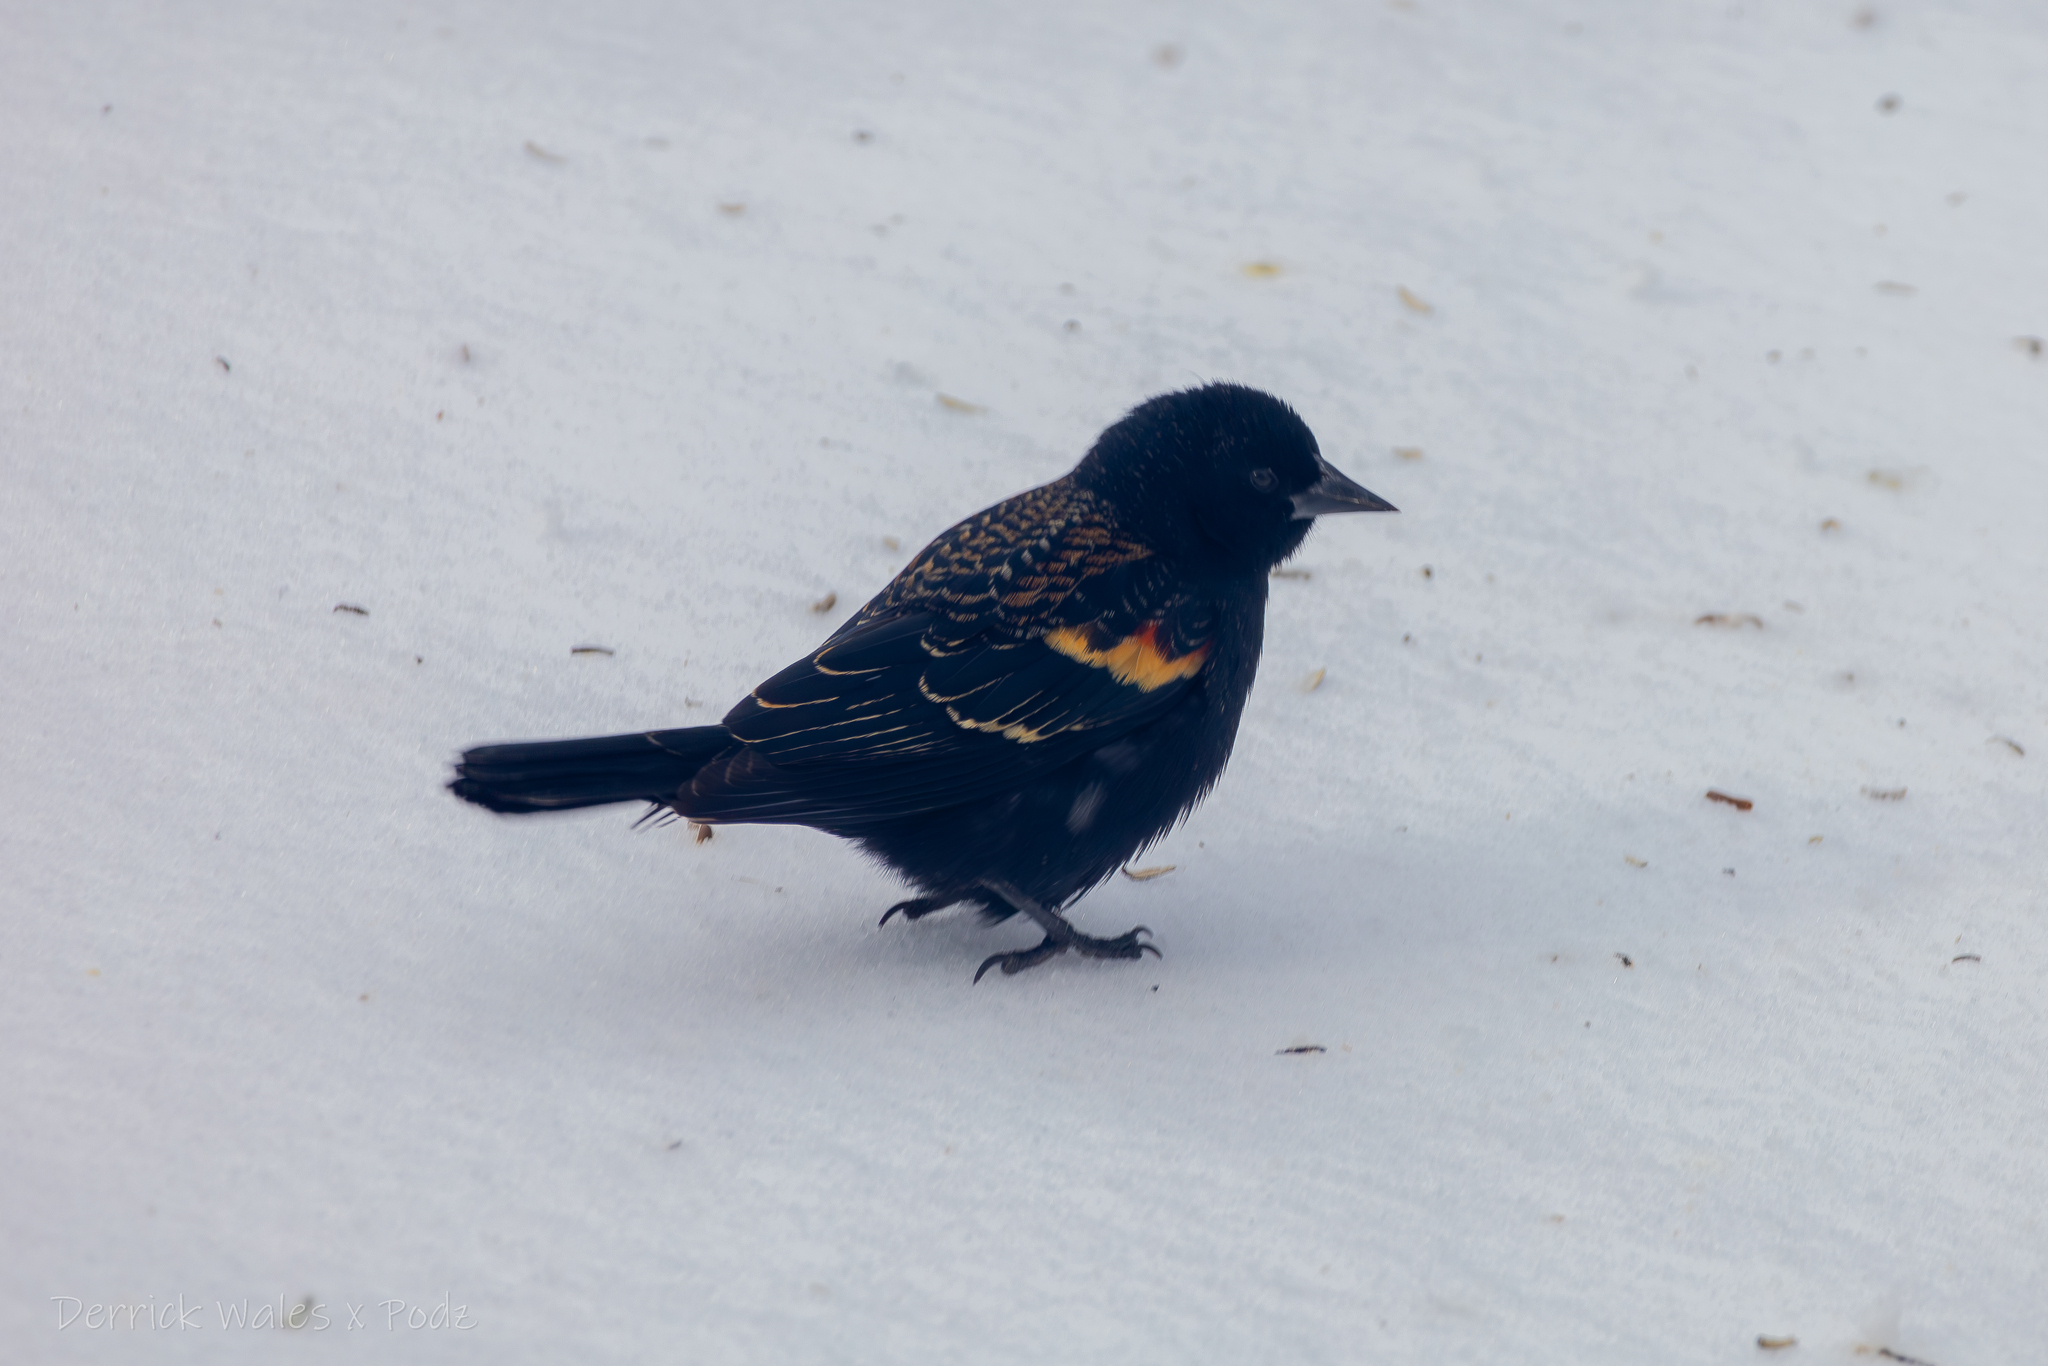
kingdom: Animalia
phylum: Chordata
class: Aves
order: Passeriformes
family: Icteridae
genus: Agelaius
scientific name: Agelaius phoeniceus
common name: Red-winged blackbird
